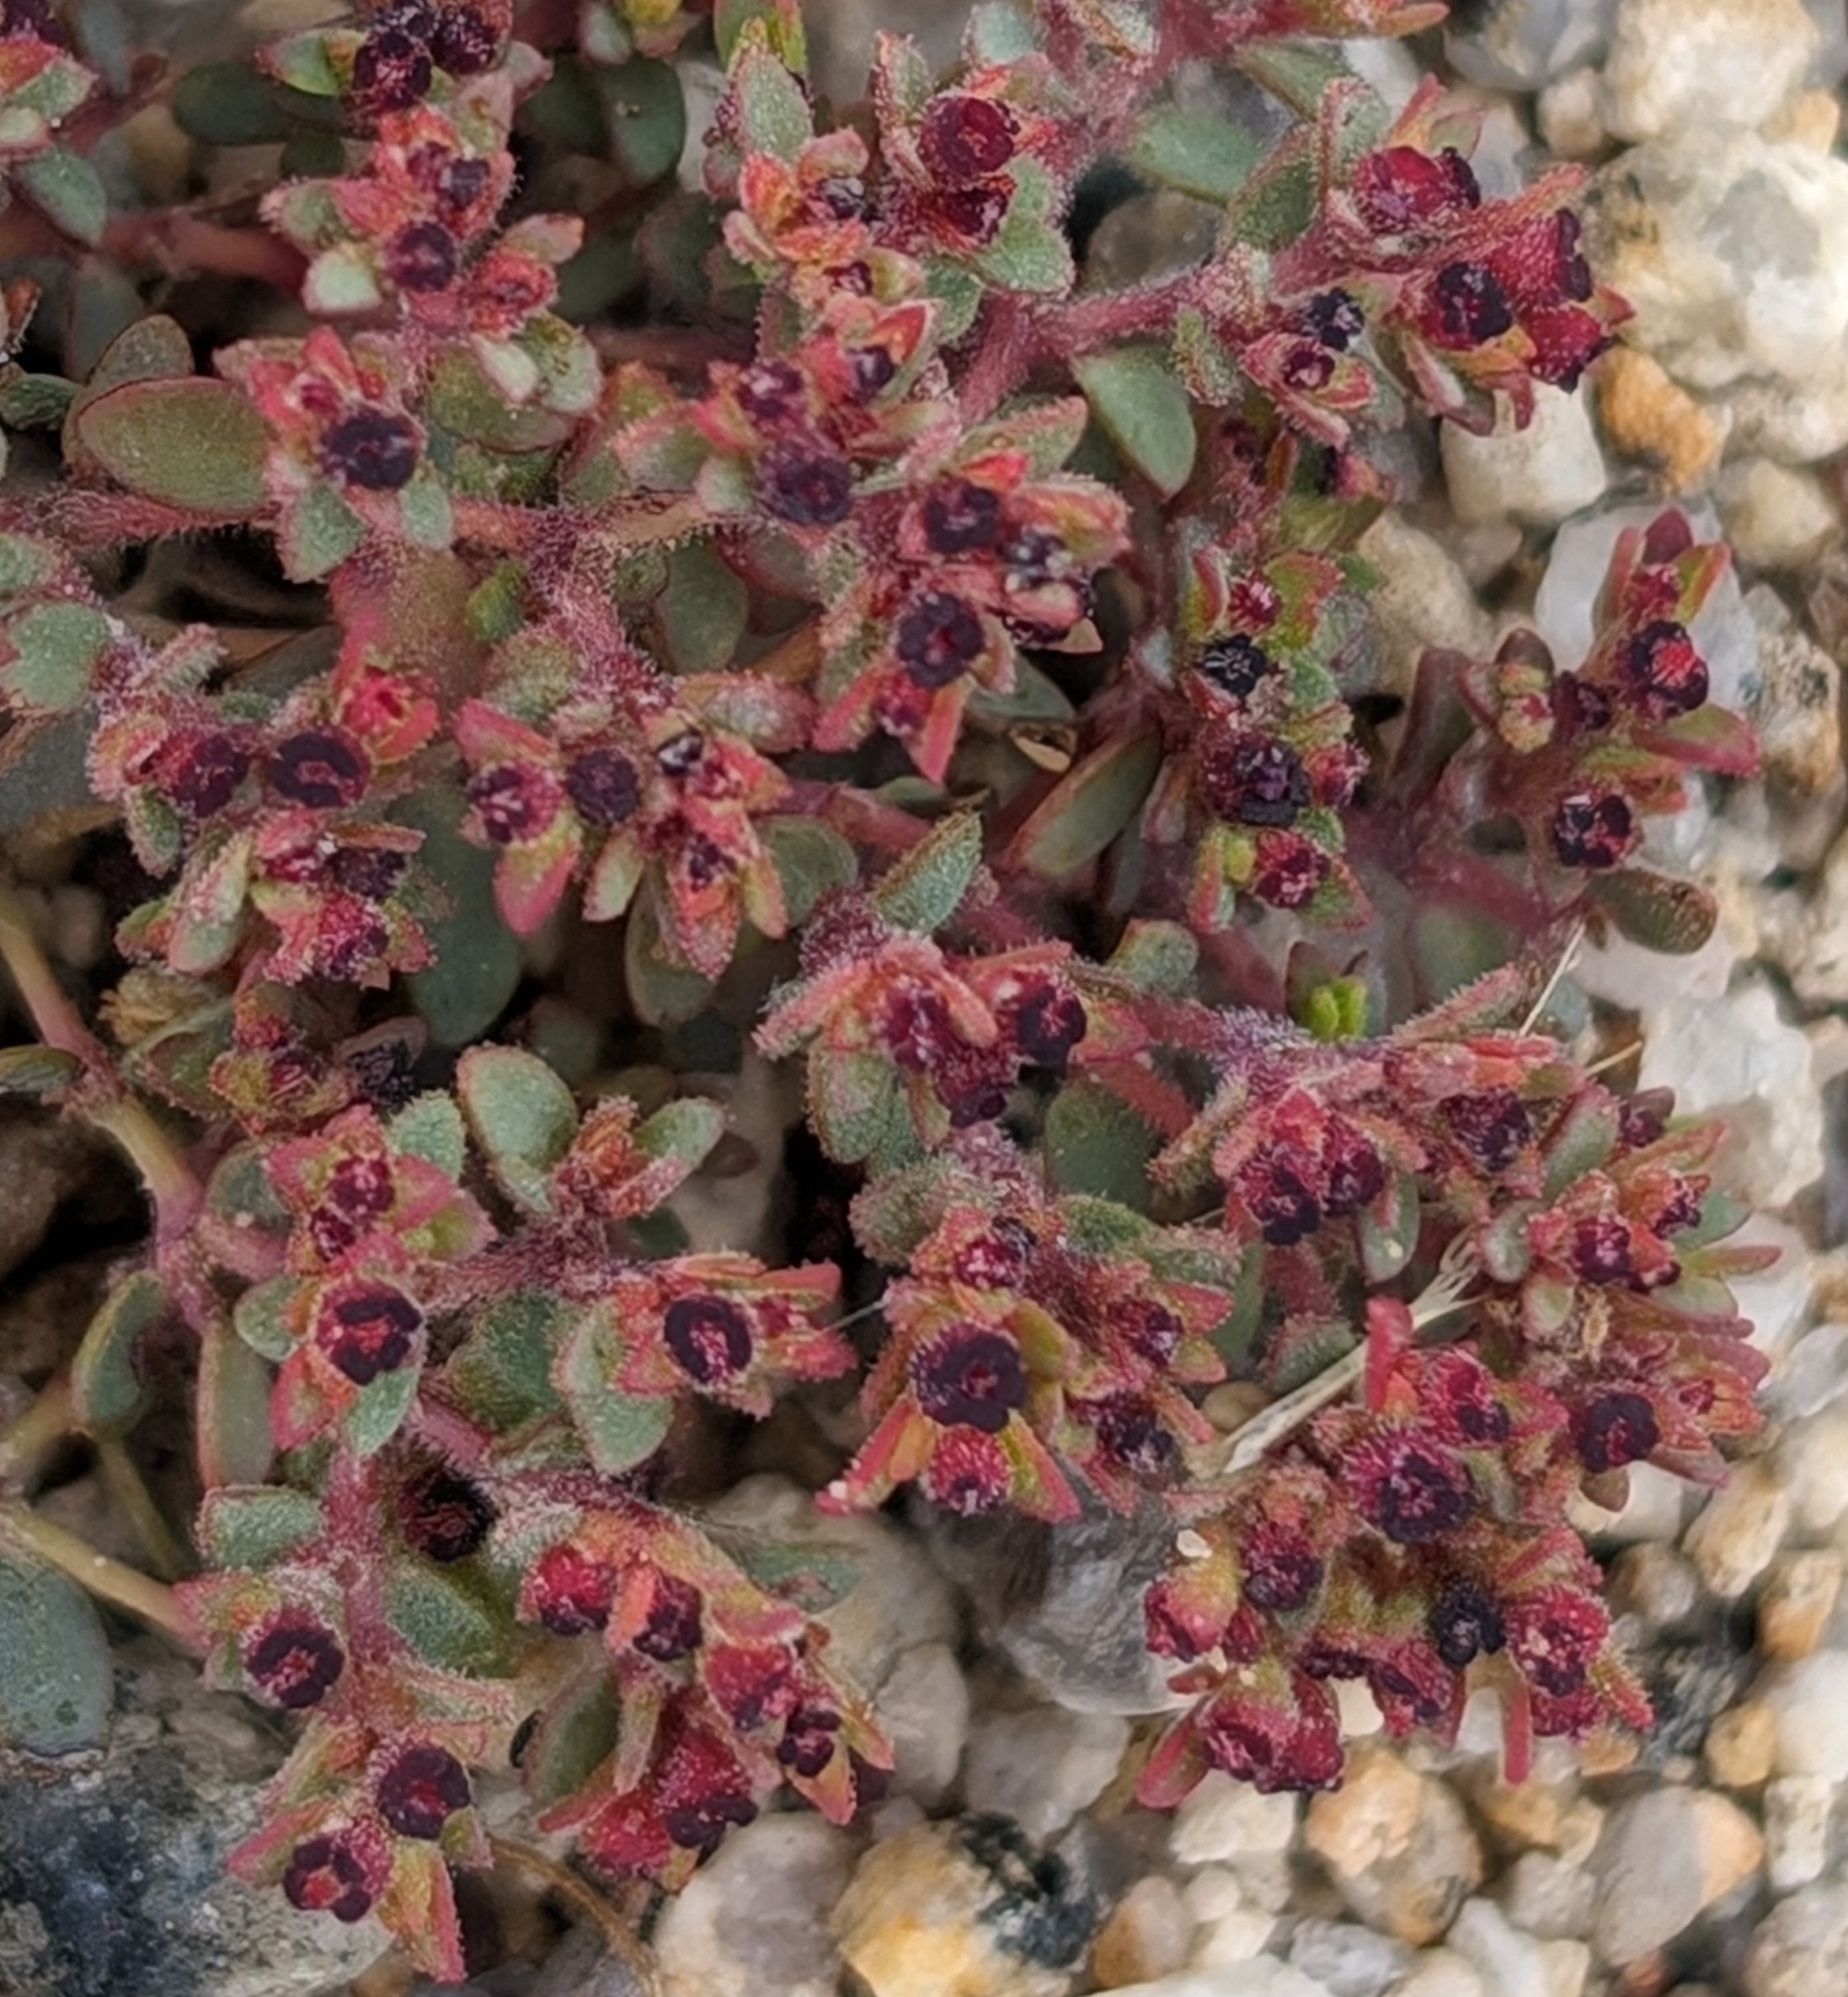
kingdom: Plantae
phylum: Tracheophyta
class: Magnoliopsida
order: Malpighiales
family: Euphorbiaceae
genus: Euphorbia
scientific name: Euphorbia polycarpa
